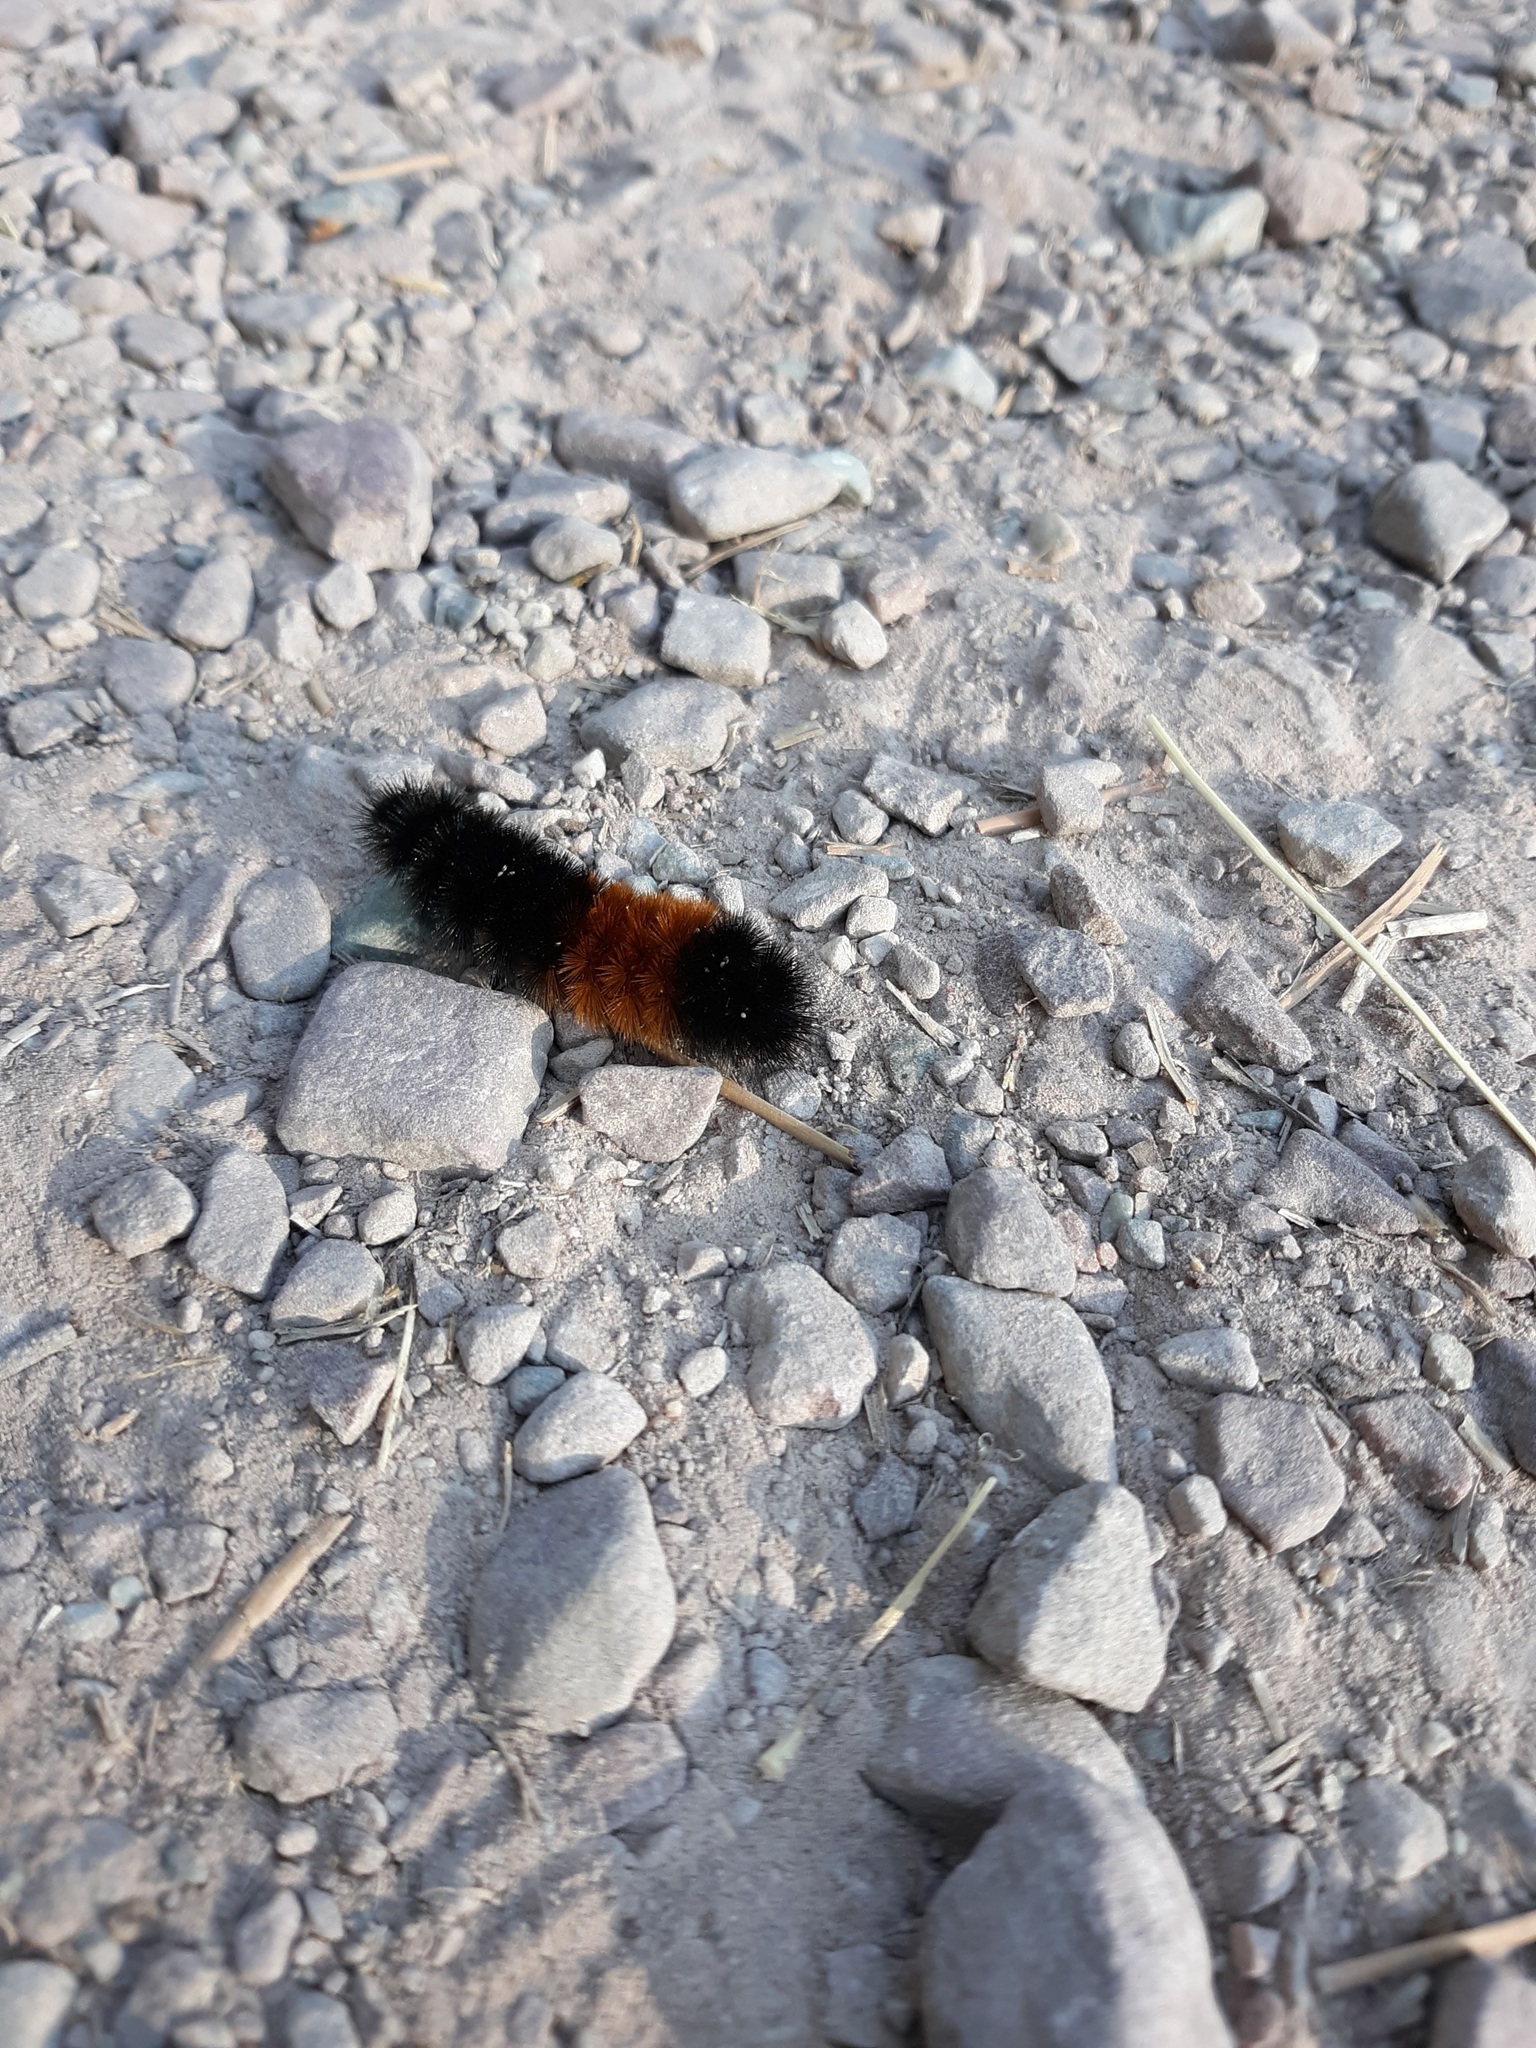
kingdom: Animalia
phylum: Arthropoda
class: Insecta
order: Lepidoptera
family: Erebidae
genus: Pyrrharctia
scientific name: Pyrrharctia isabella
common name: Isabella tiger moth
